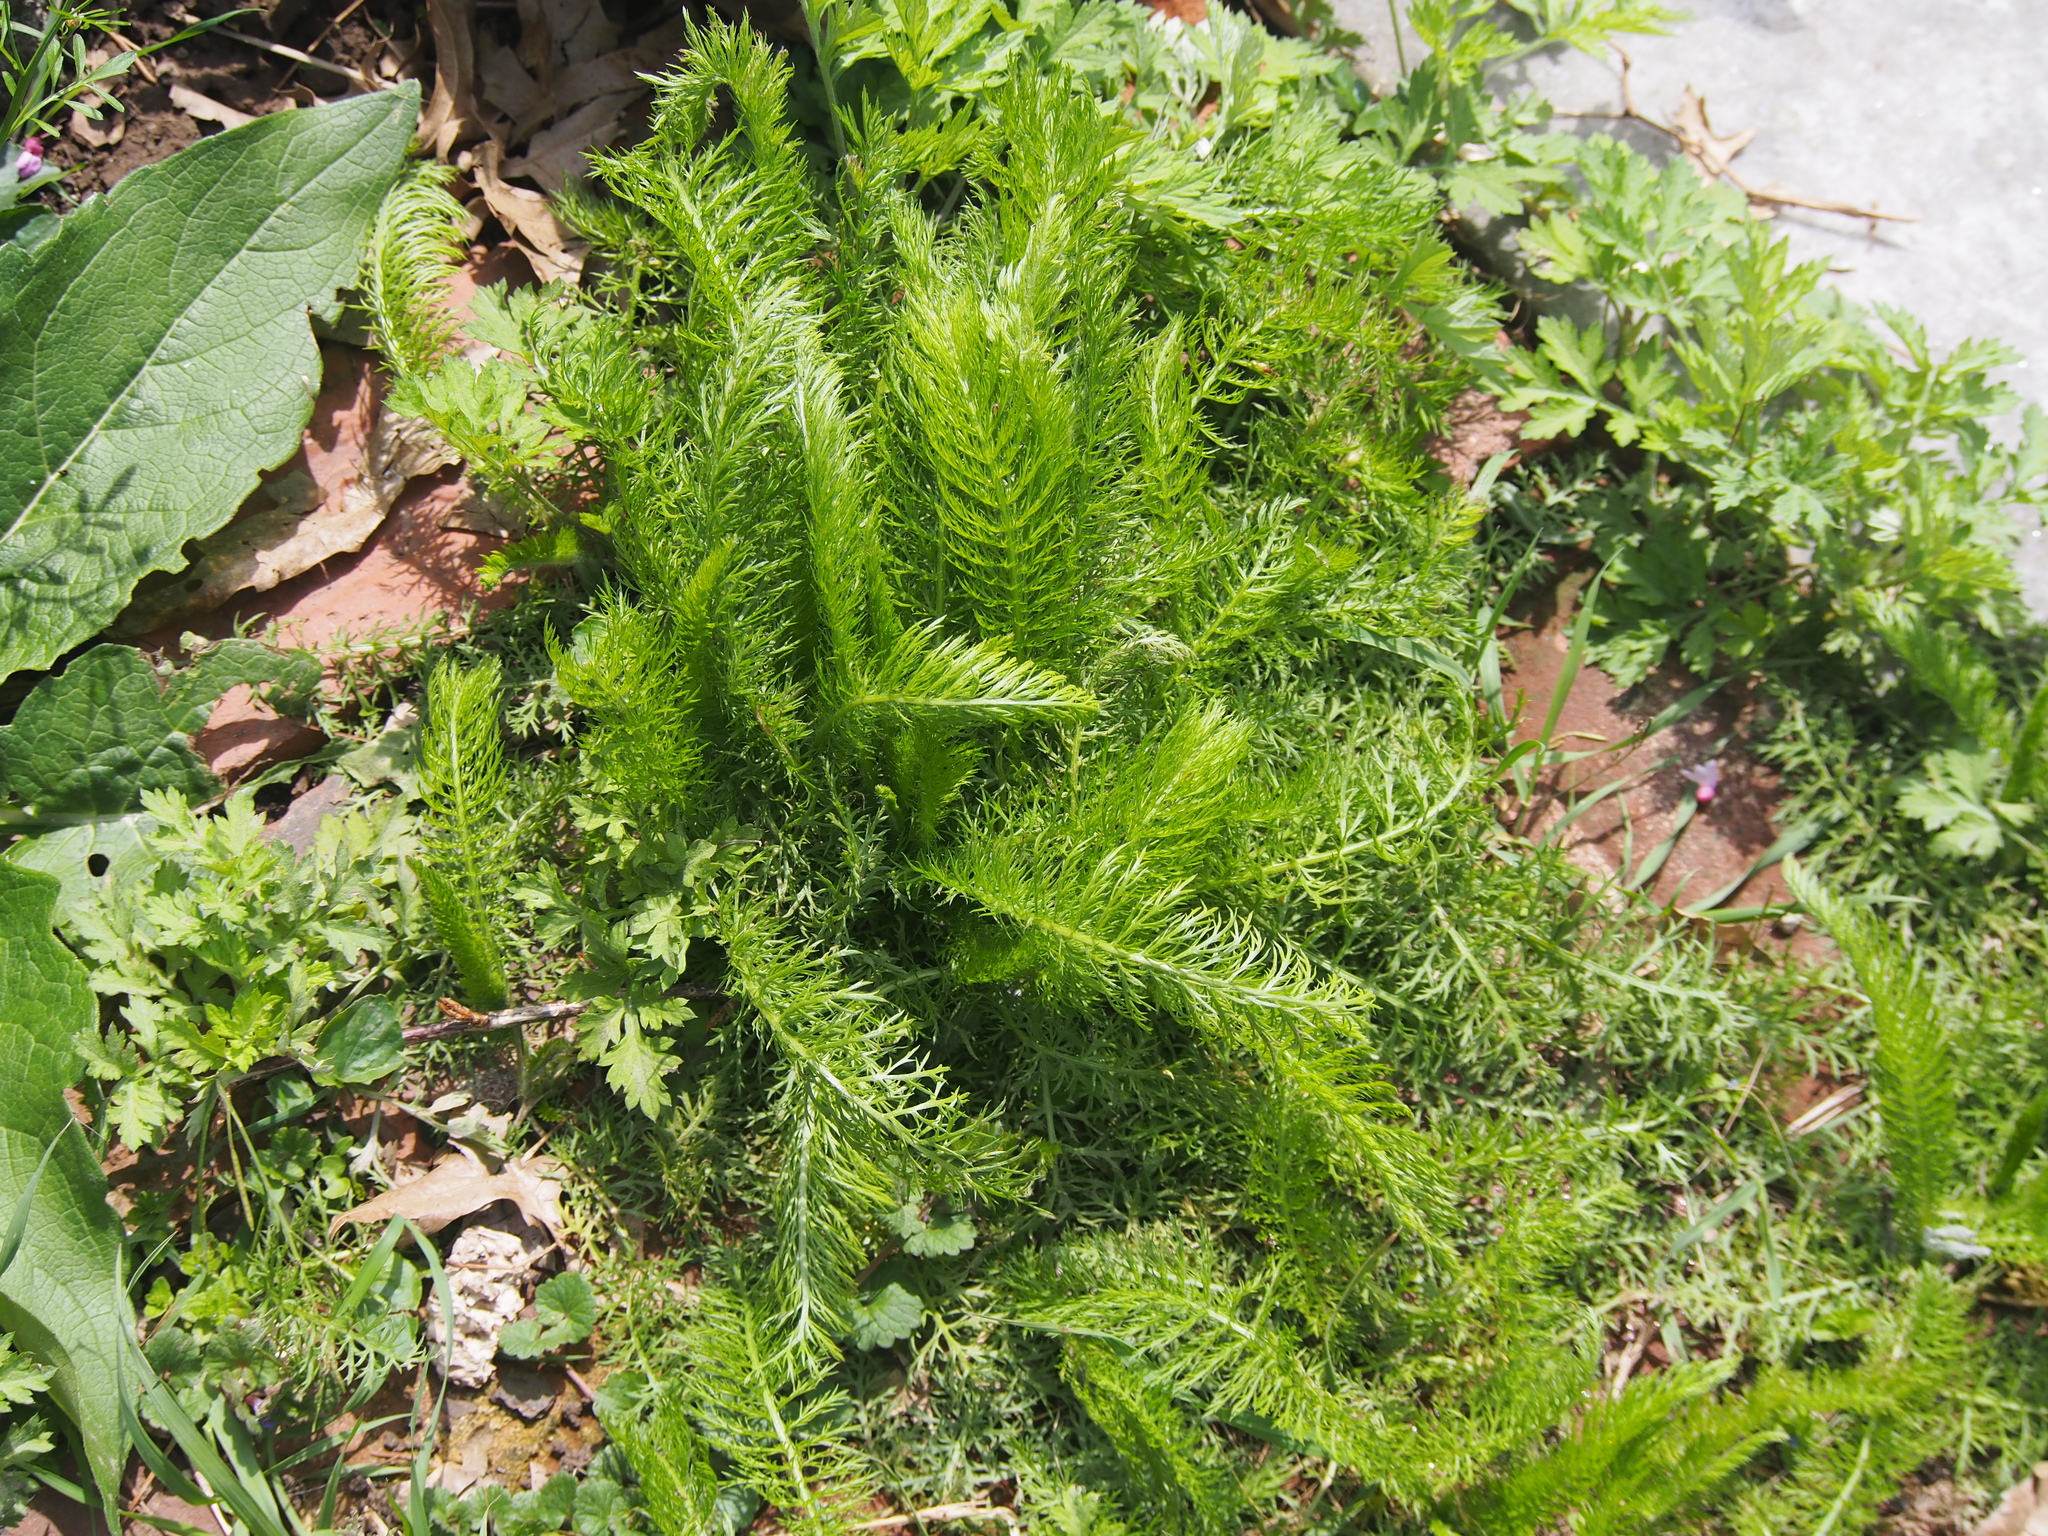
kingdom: Plantae
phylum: Tracheophyta
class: Magnoliopsida
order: Asterales
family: Asteraceae
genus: Achillea
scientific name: Achillea millefolium
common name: Yarrow
